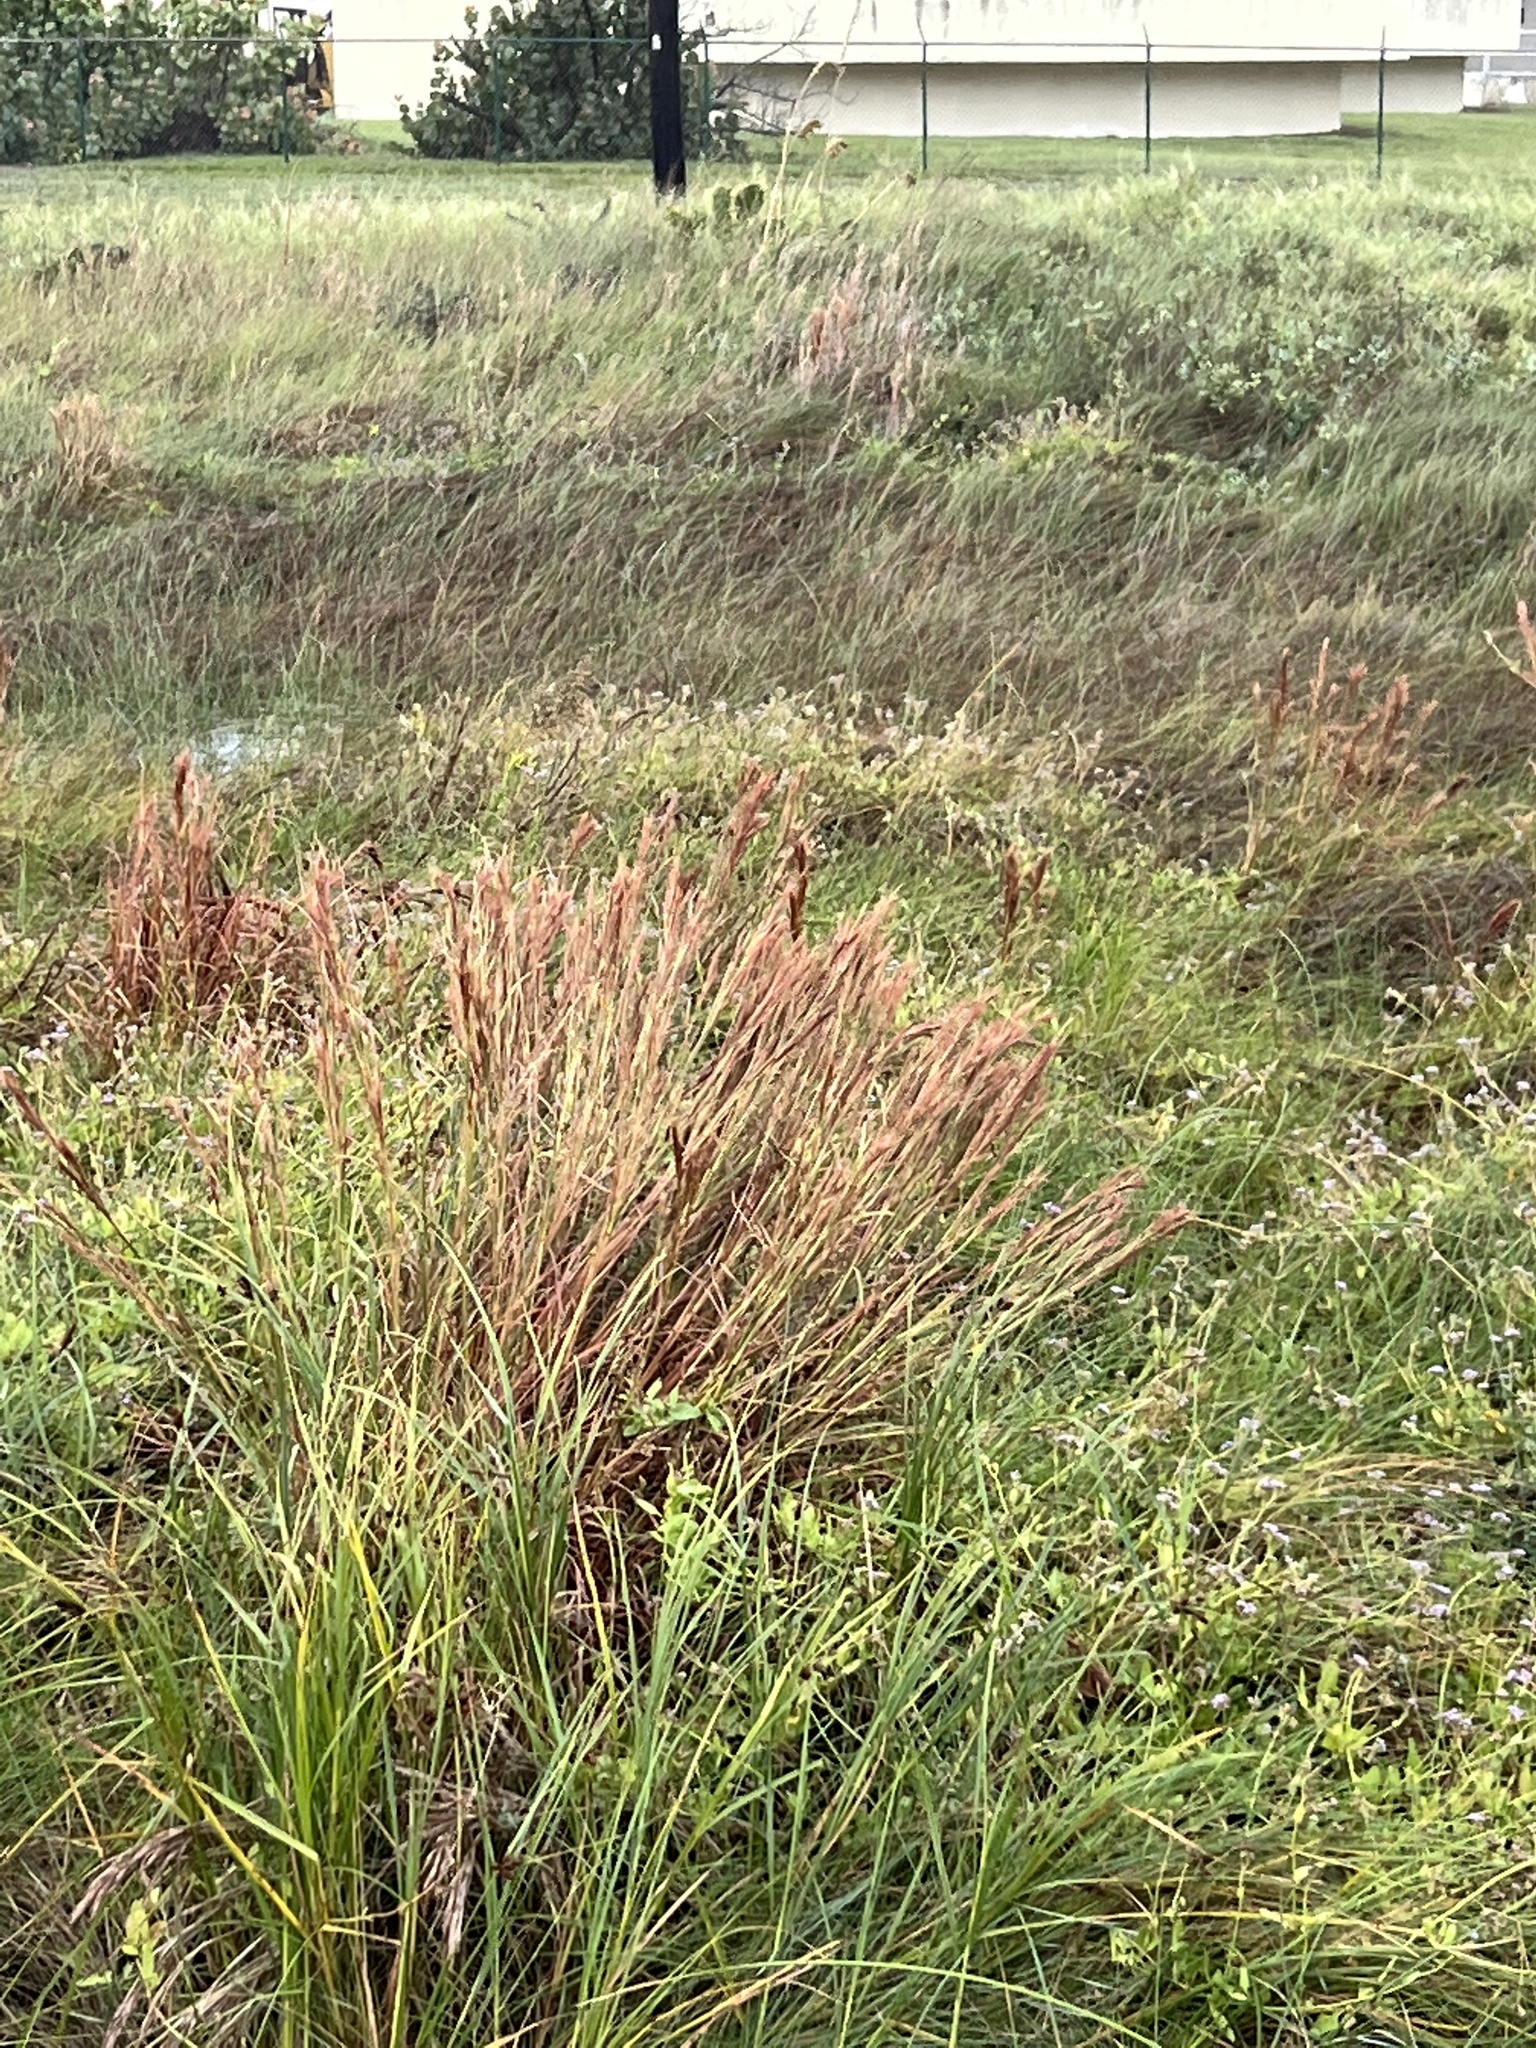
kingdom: Plantae
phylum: Tracheophyta
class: Liliopsida
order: Poales
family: Poaceae
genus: Andropogon
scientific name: Andropogon tenuispatheus
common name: Bushy bluestem
